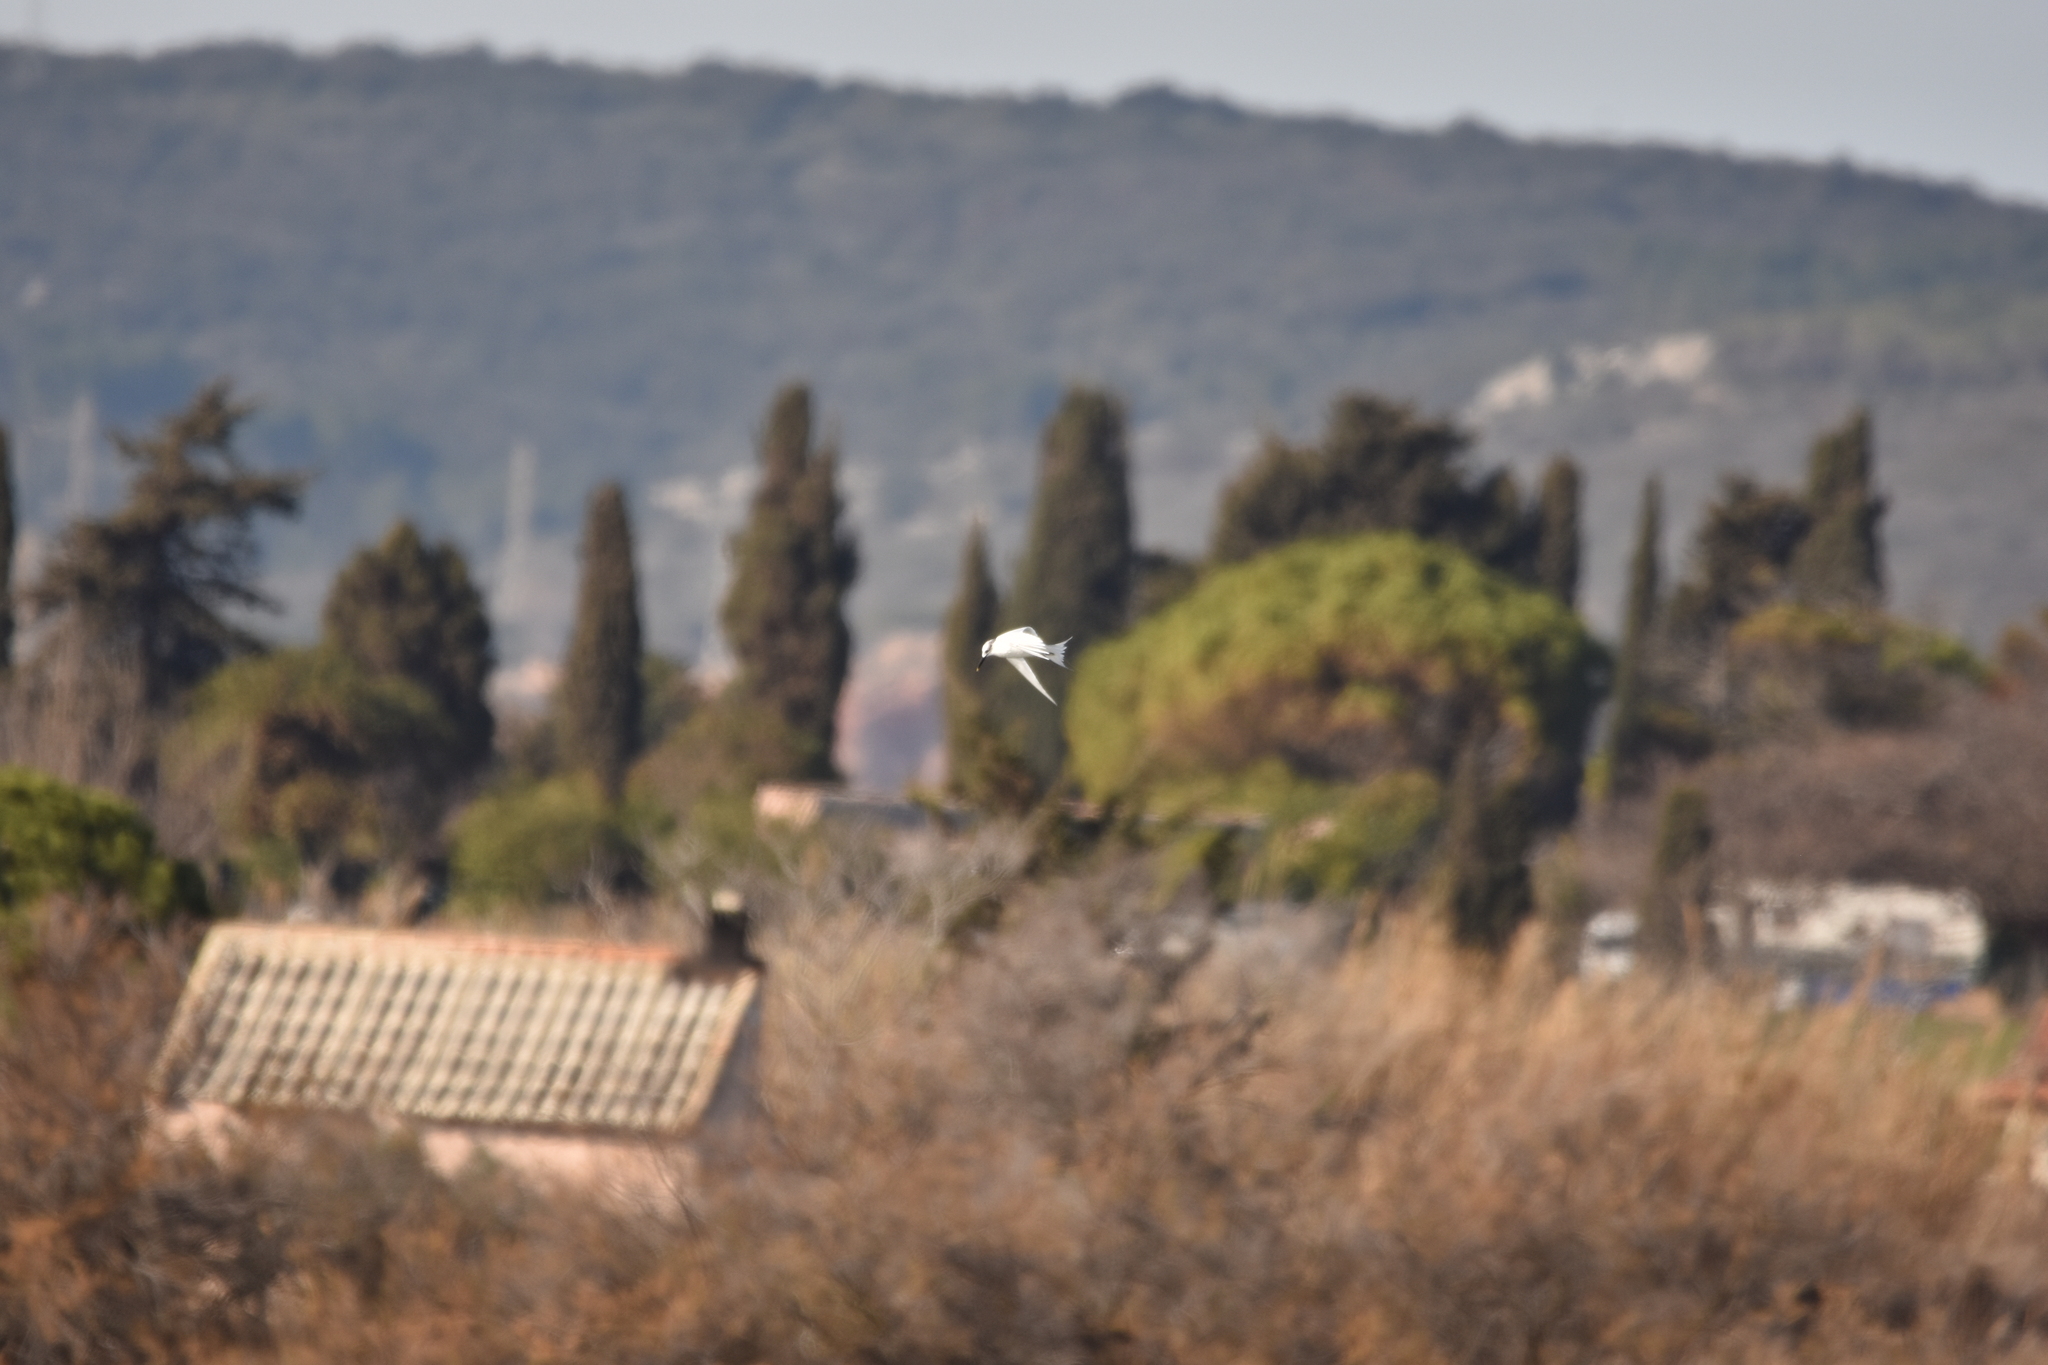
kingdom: Animalia
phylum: Chordata
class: Aves
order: Charadriiformes
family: Laridae
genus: Thalasseus
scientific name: Thalasseus sandvicensis
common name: Sandwich tern
